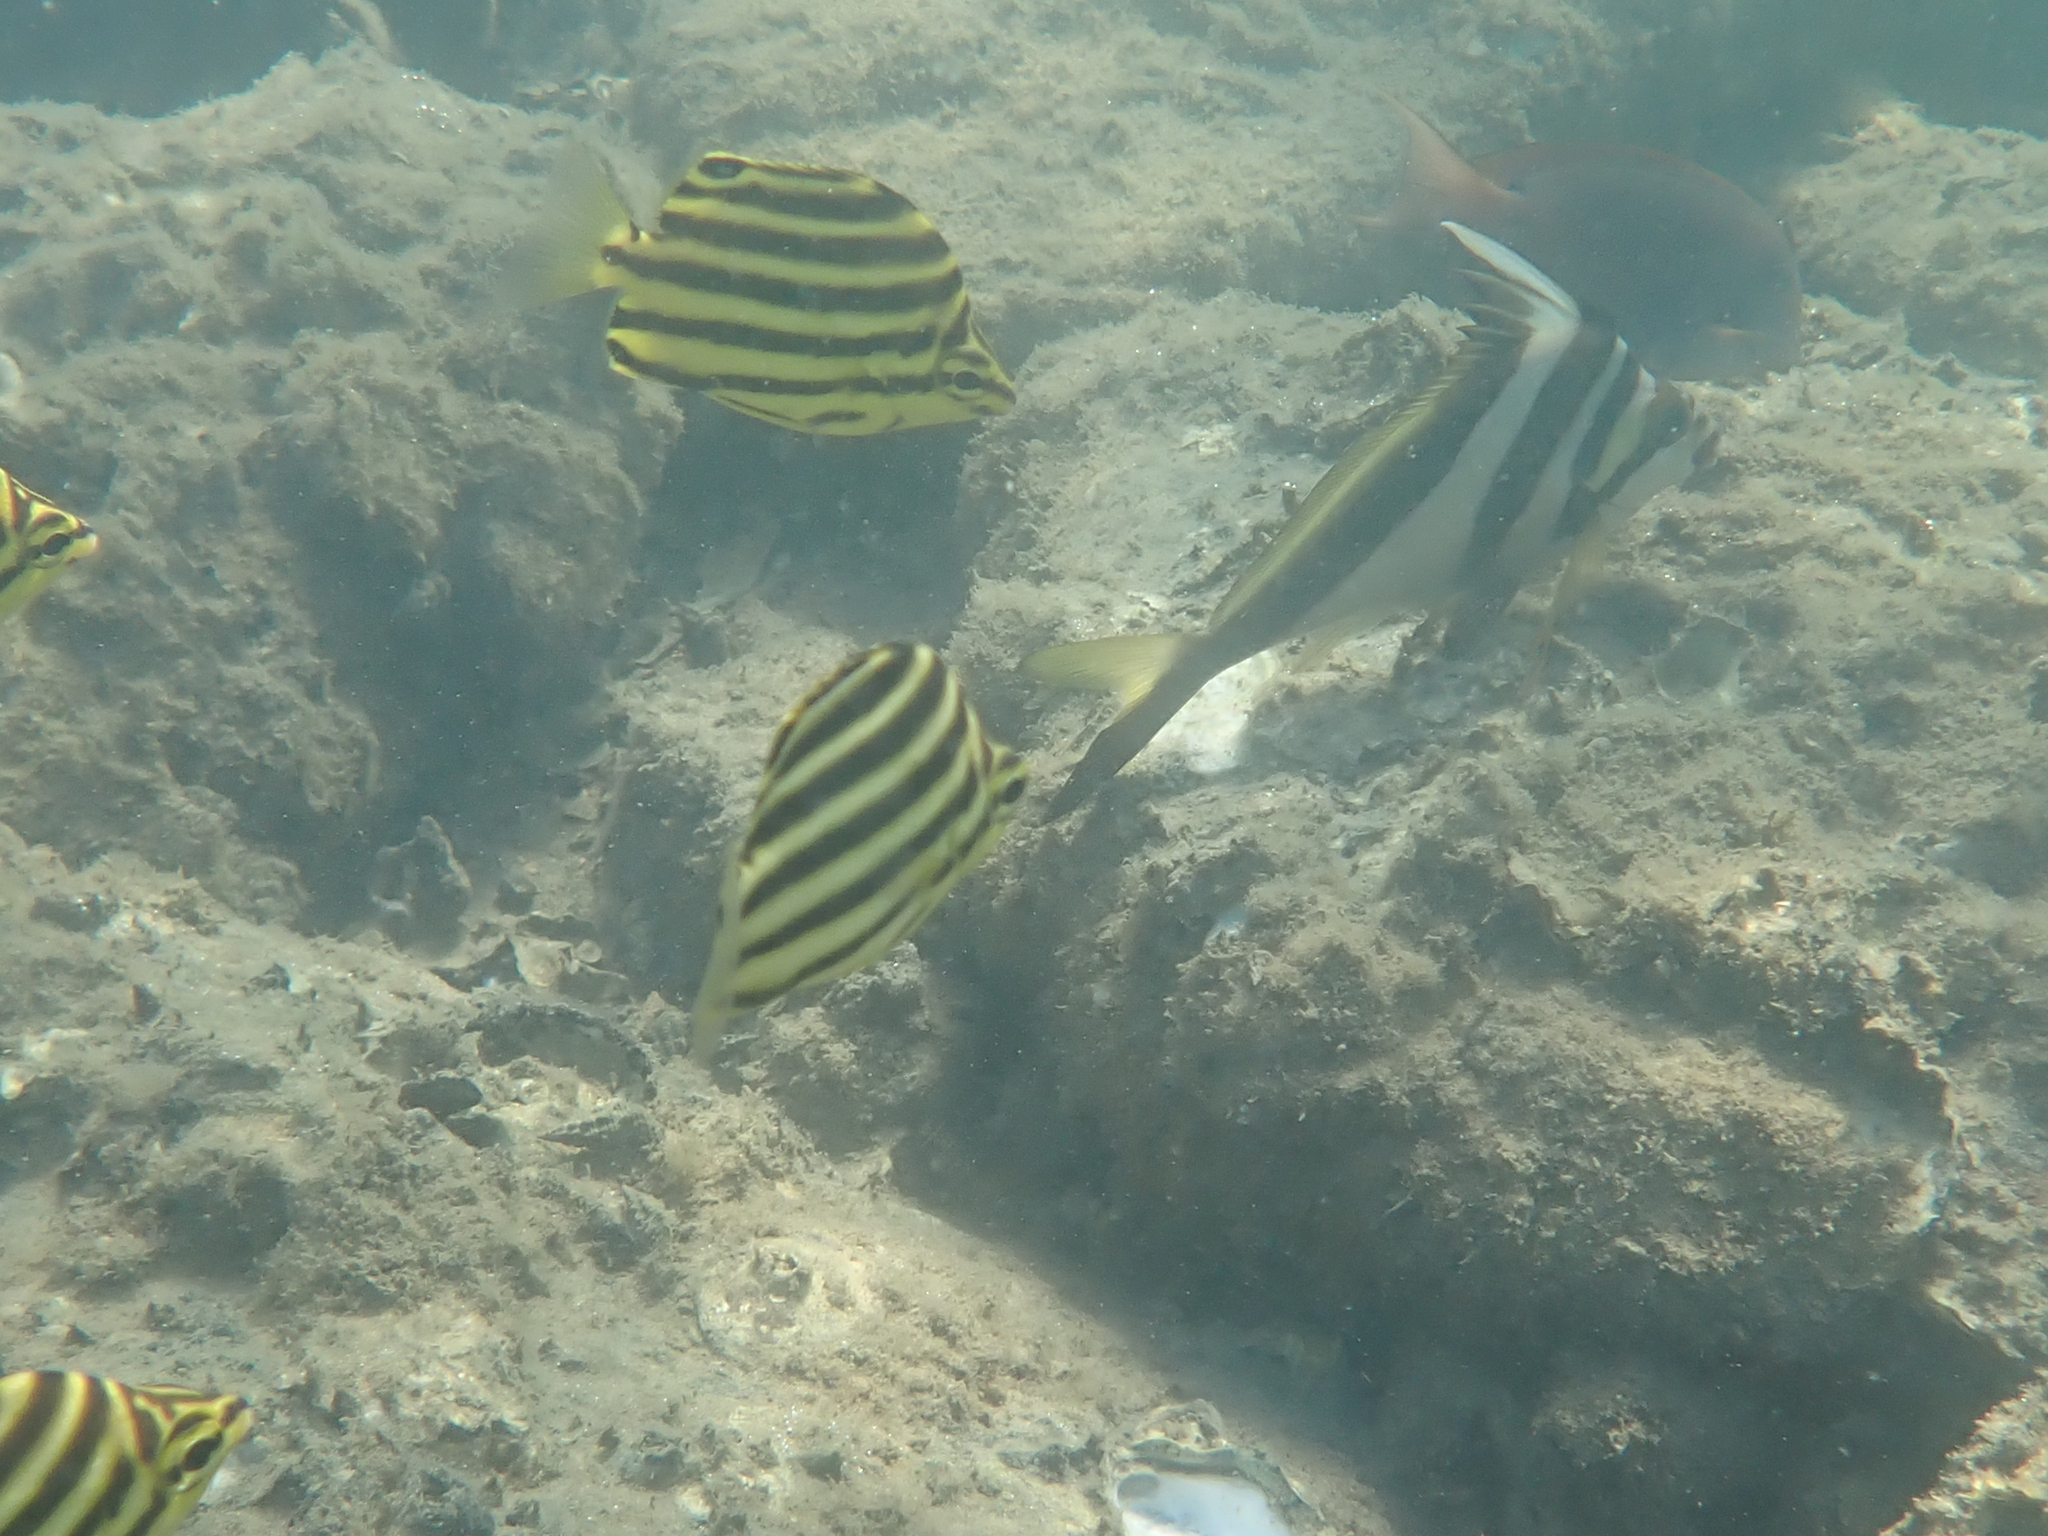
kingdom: Animalia
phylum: Chordata
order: Perciformes
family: Kyphosidae
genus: Microcanthus
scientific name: Microcanthus joyceae
